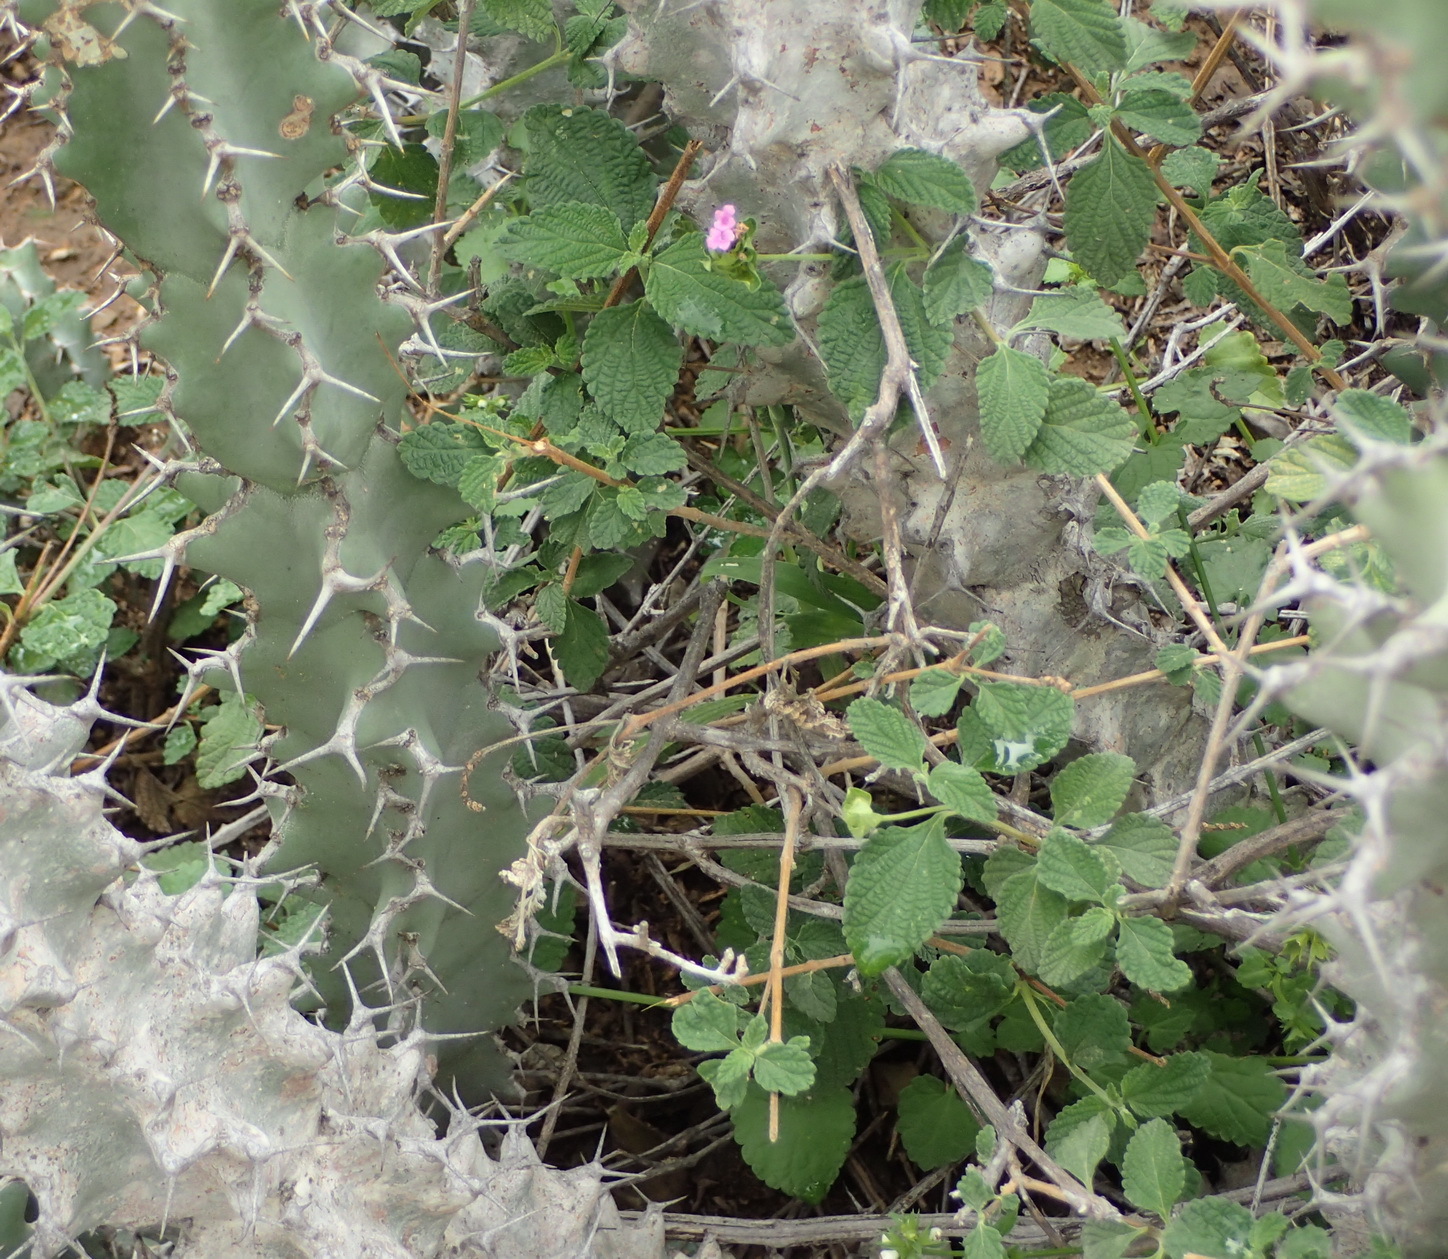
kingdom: Plantae
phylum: Tracheophyta
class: Magnoliopsida
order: Lamiales
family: Verbenaceae
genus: Lantana
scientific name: Lantana rugosa
